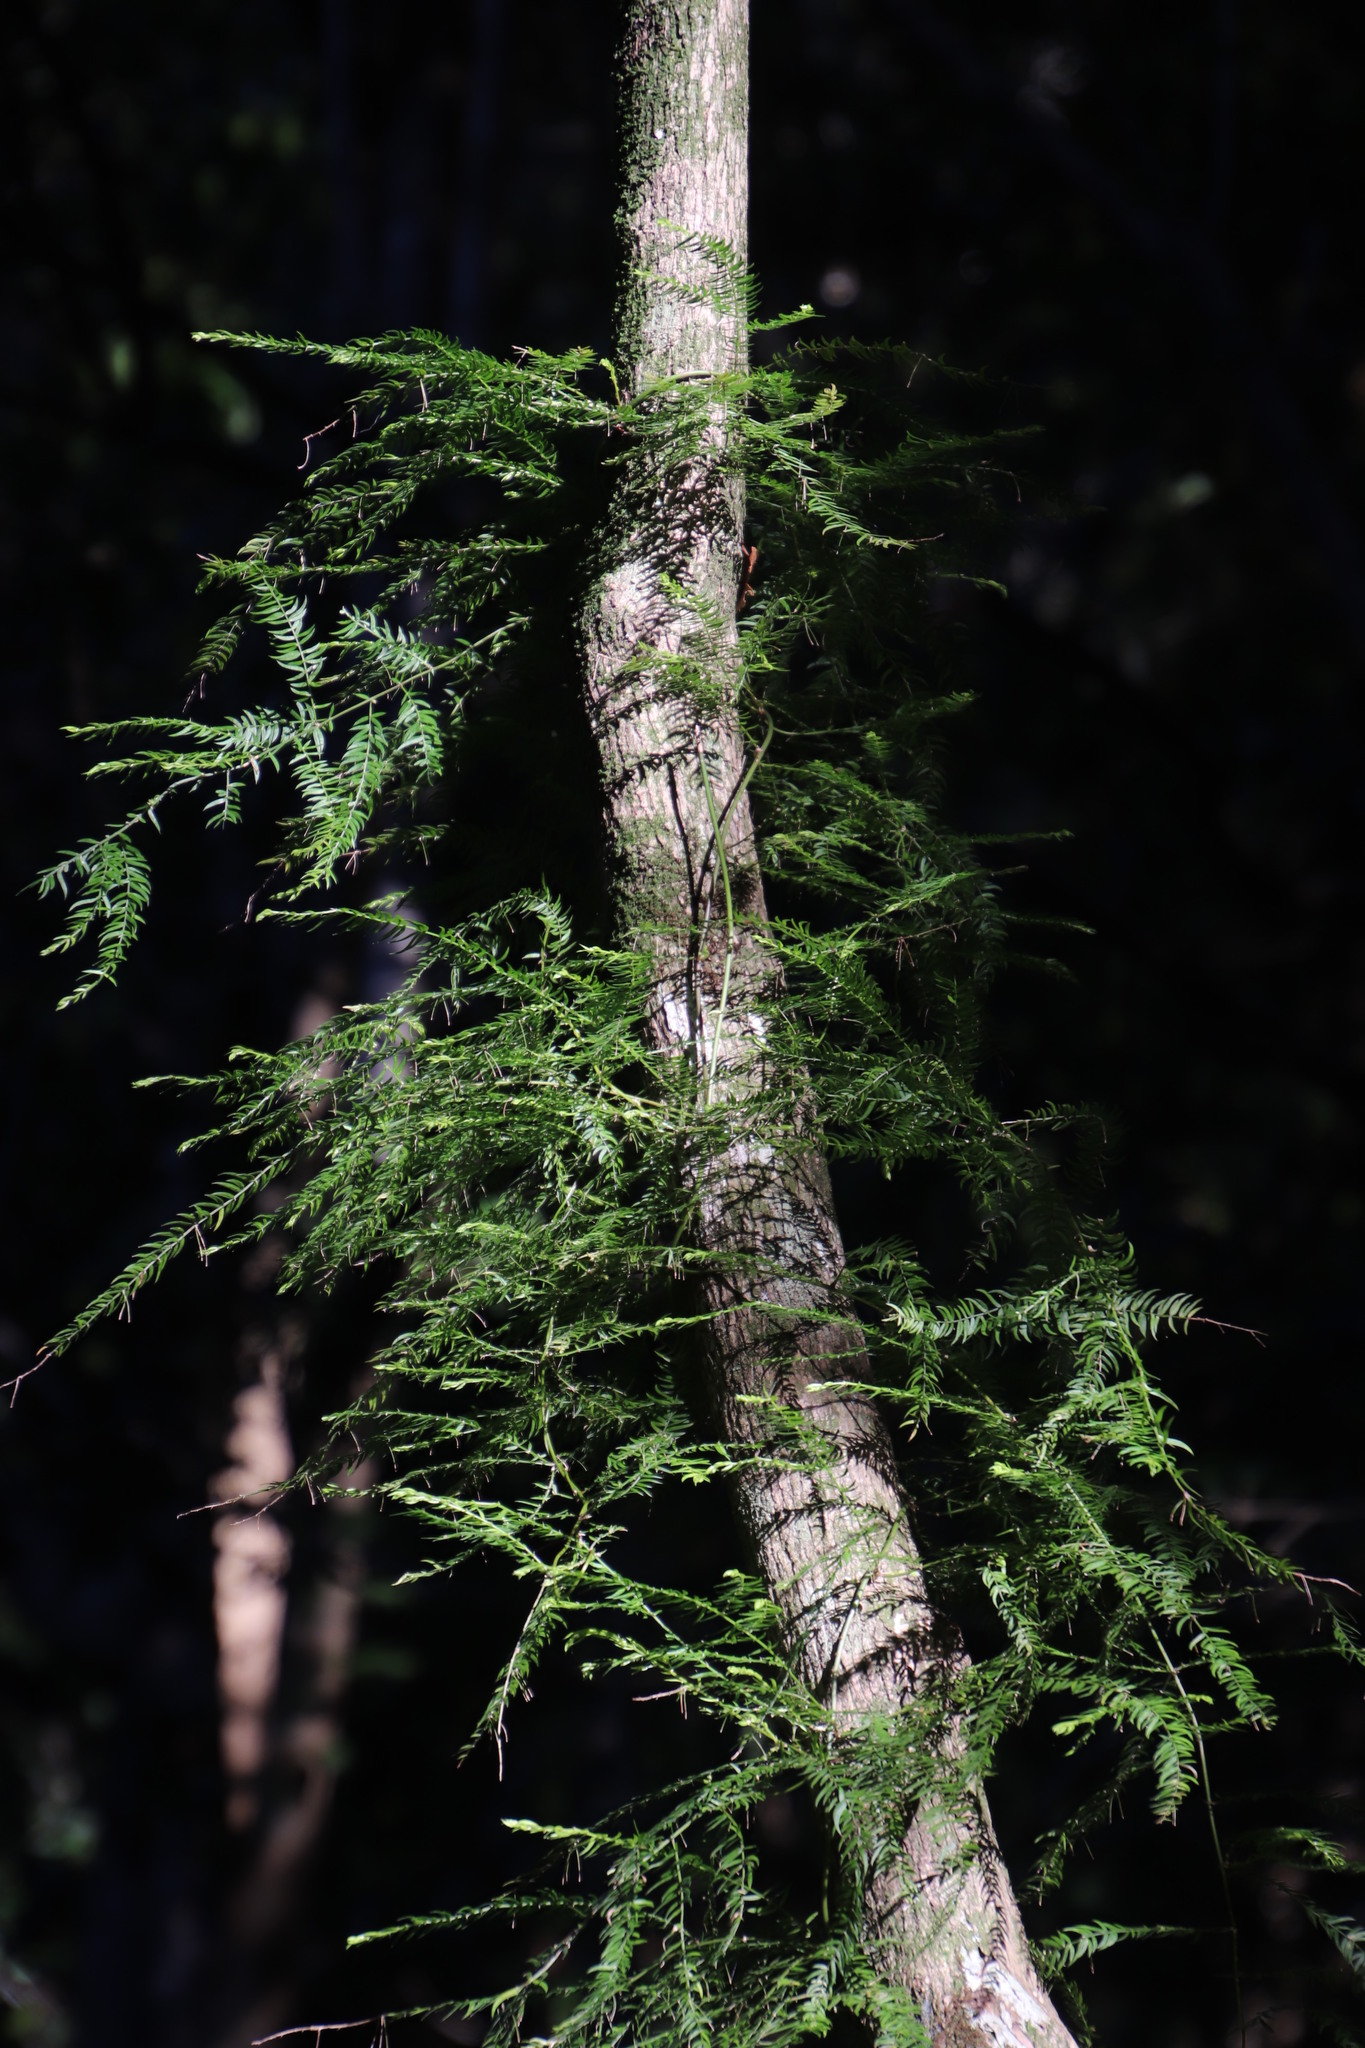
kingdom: Plantae
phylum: Tracheophyta
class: Liliopsida
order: Asparagales
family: Asparagaceae
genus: Asparagus
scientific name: Asparagus scandens
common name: Asparagus-fern
